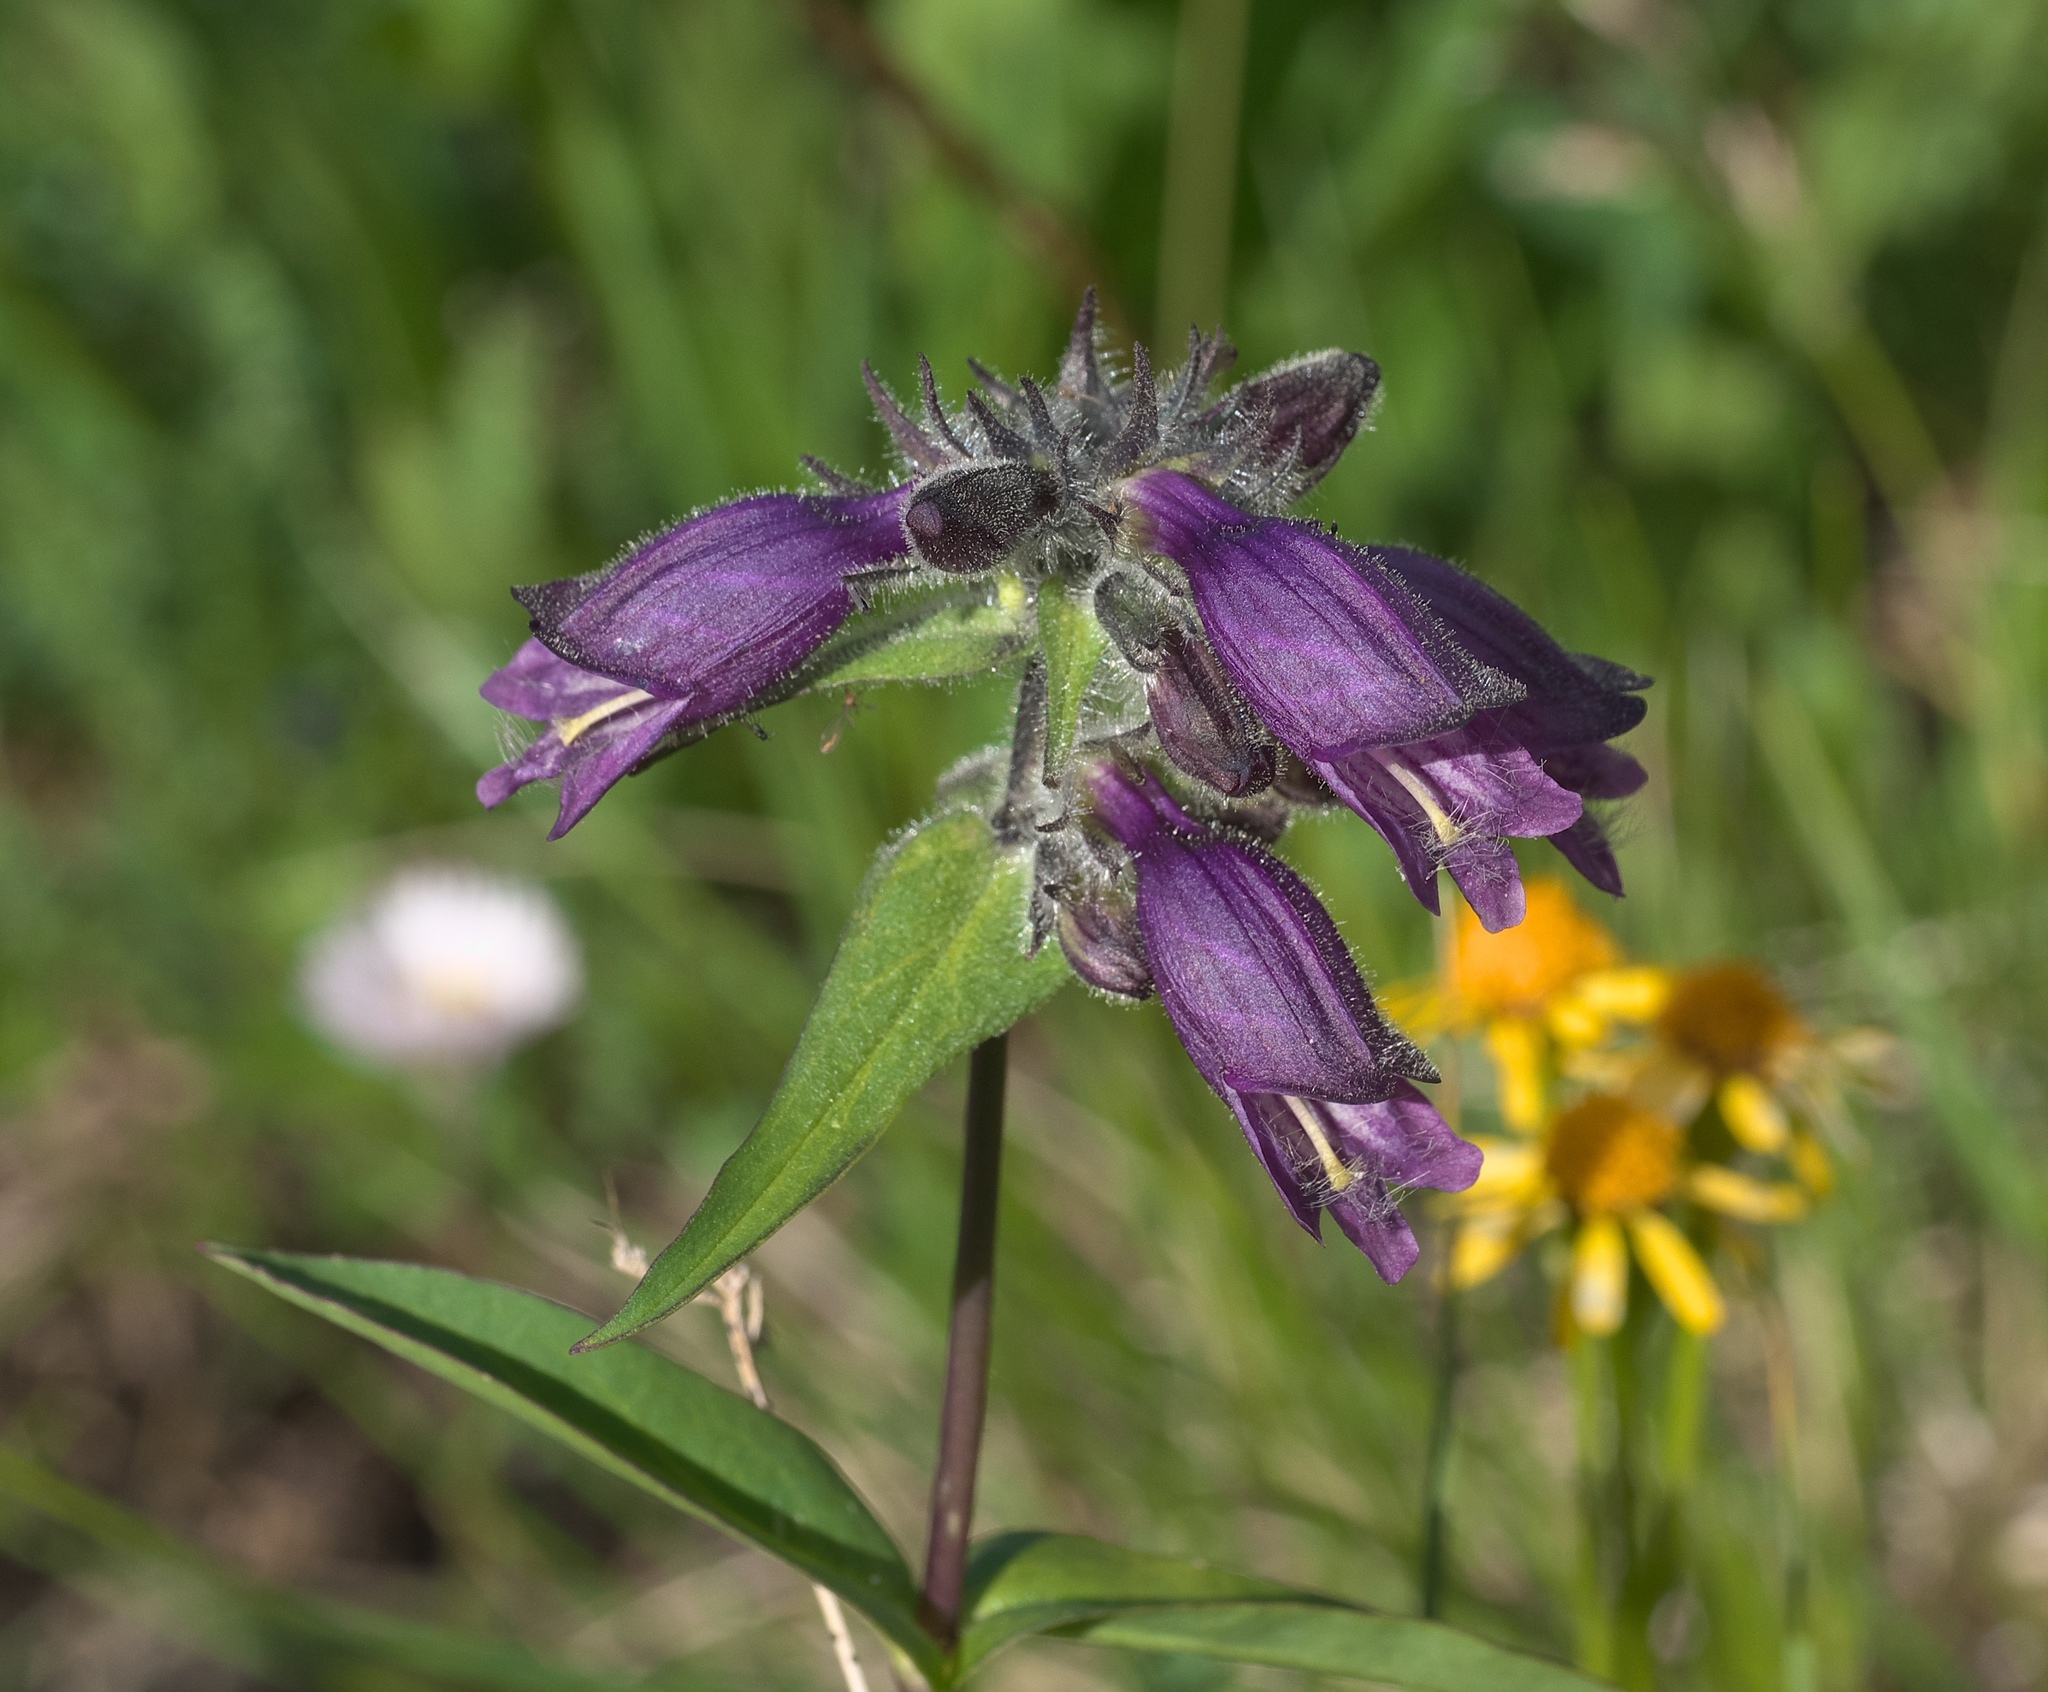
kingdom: Plantae
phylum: Tracheophyta
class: Magnoliopsida
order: Lamiales
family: Plantaginaceae
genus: Penstemon
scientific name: Penstemon whippleanus
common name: Whipple's penstemon
